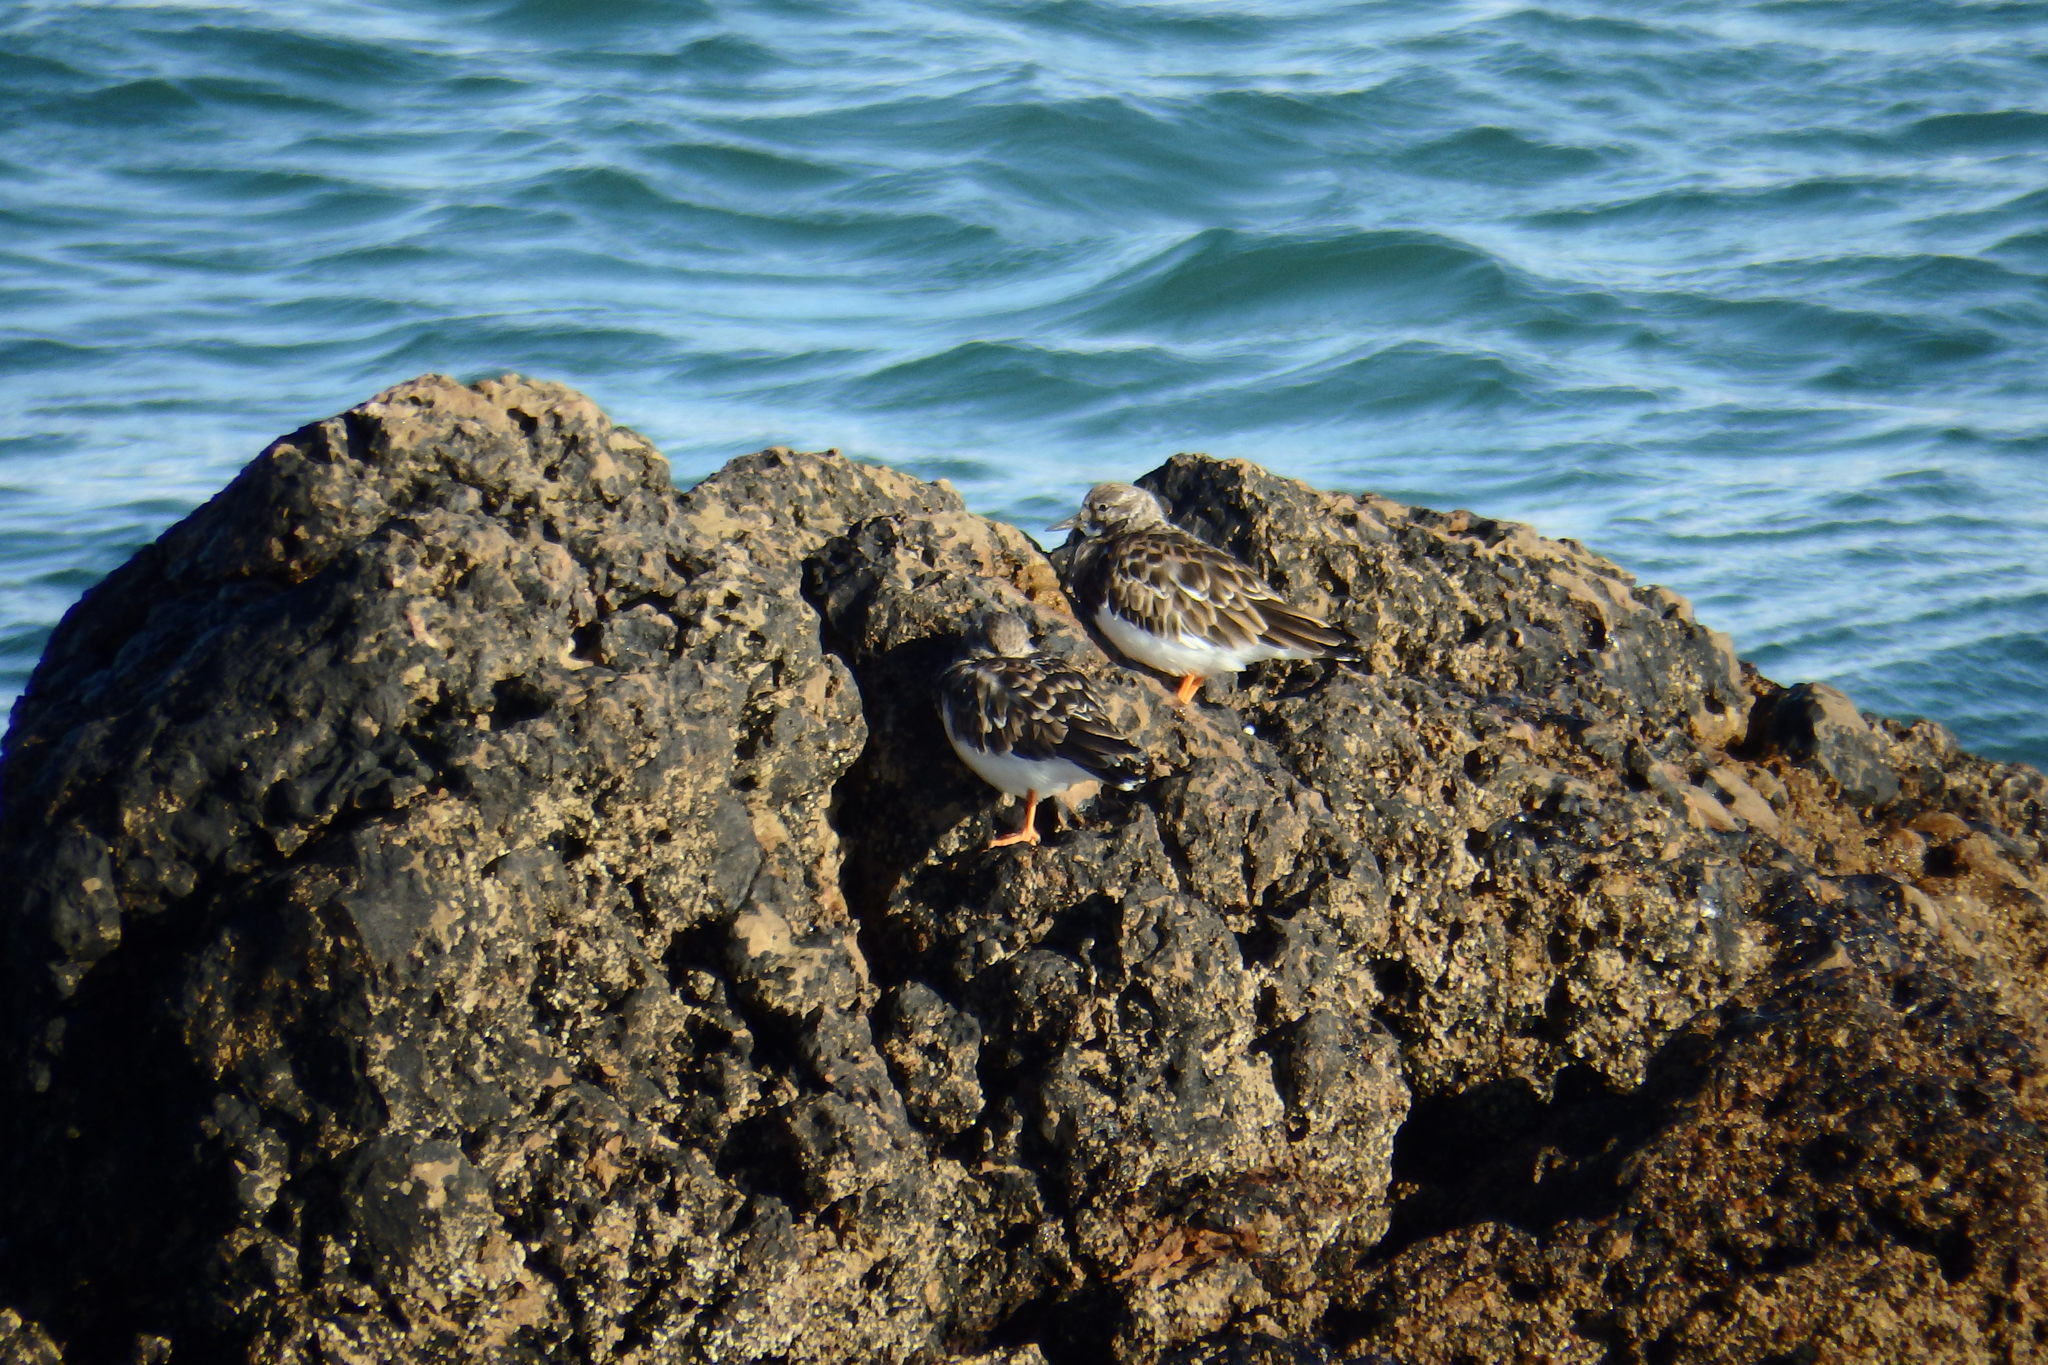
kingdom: Animalia
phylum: Chordata
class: Aves
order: Charadriiformes
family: Scolopacidae
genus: Arenaria
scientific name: Arenaria interpres
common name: Ruddy turnstone
